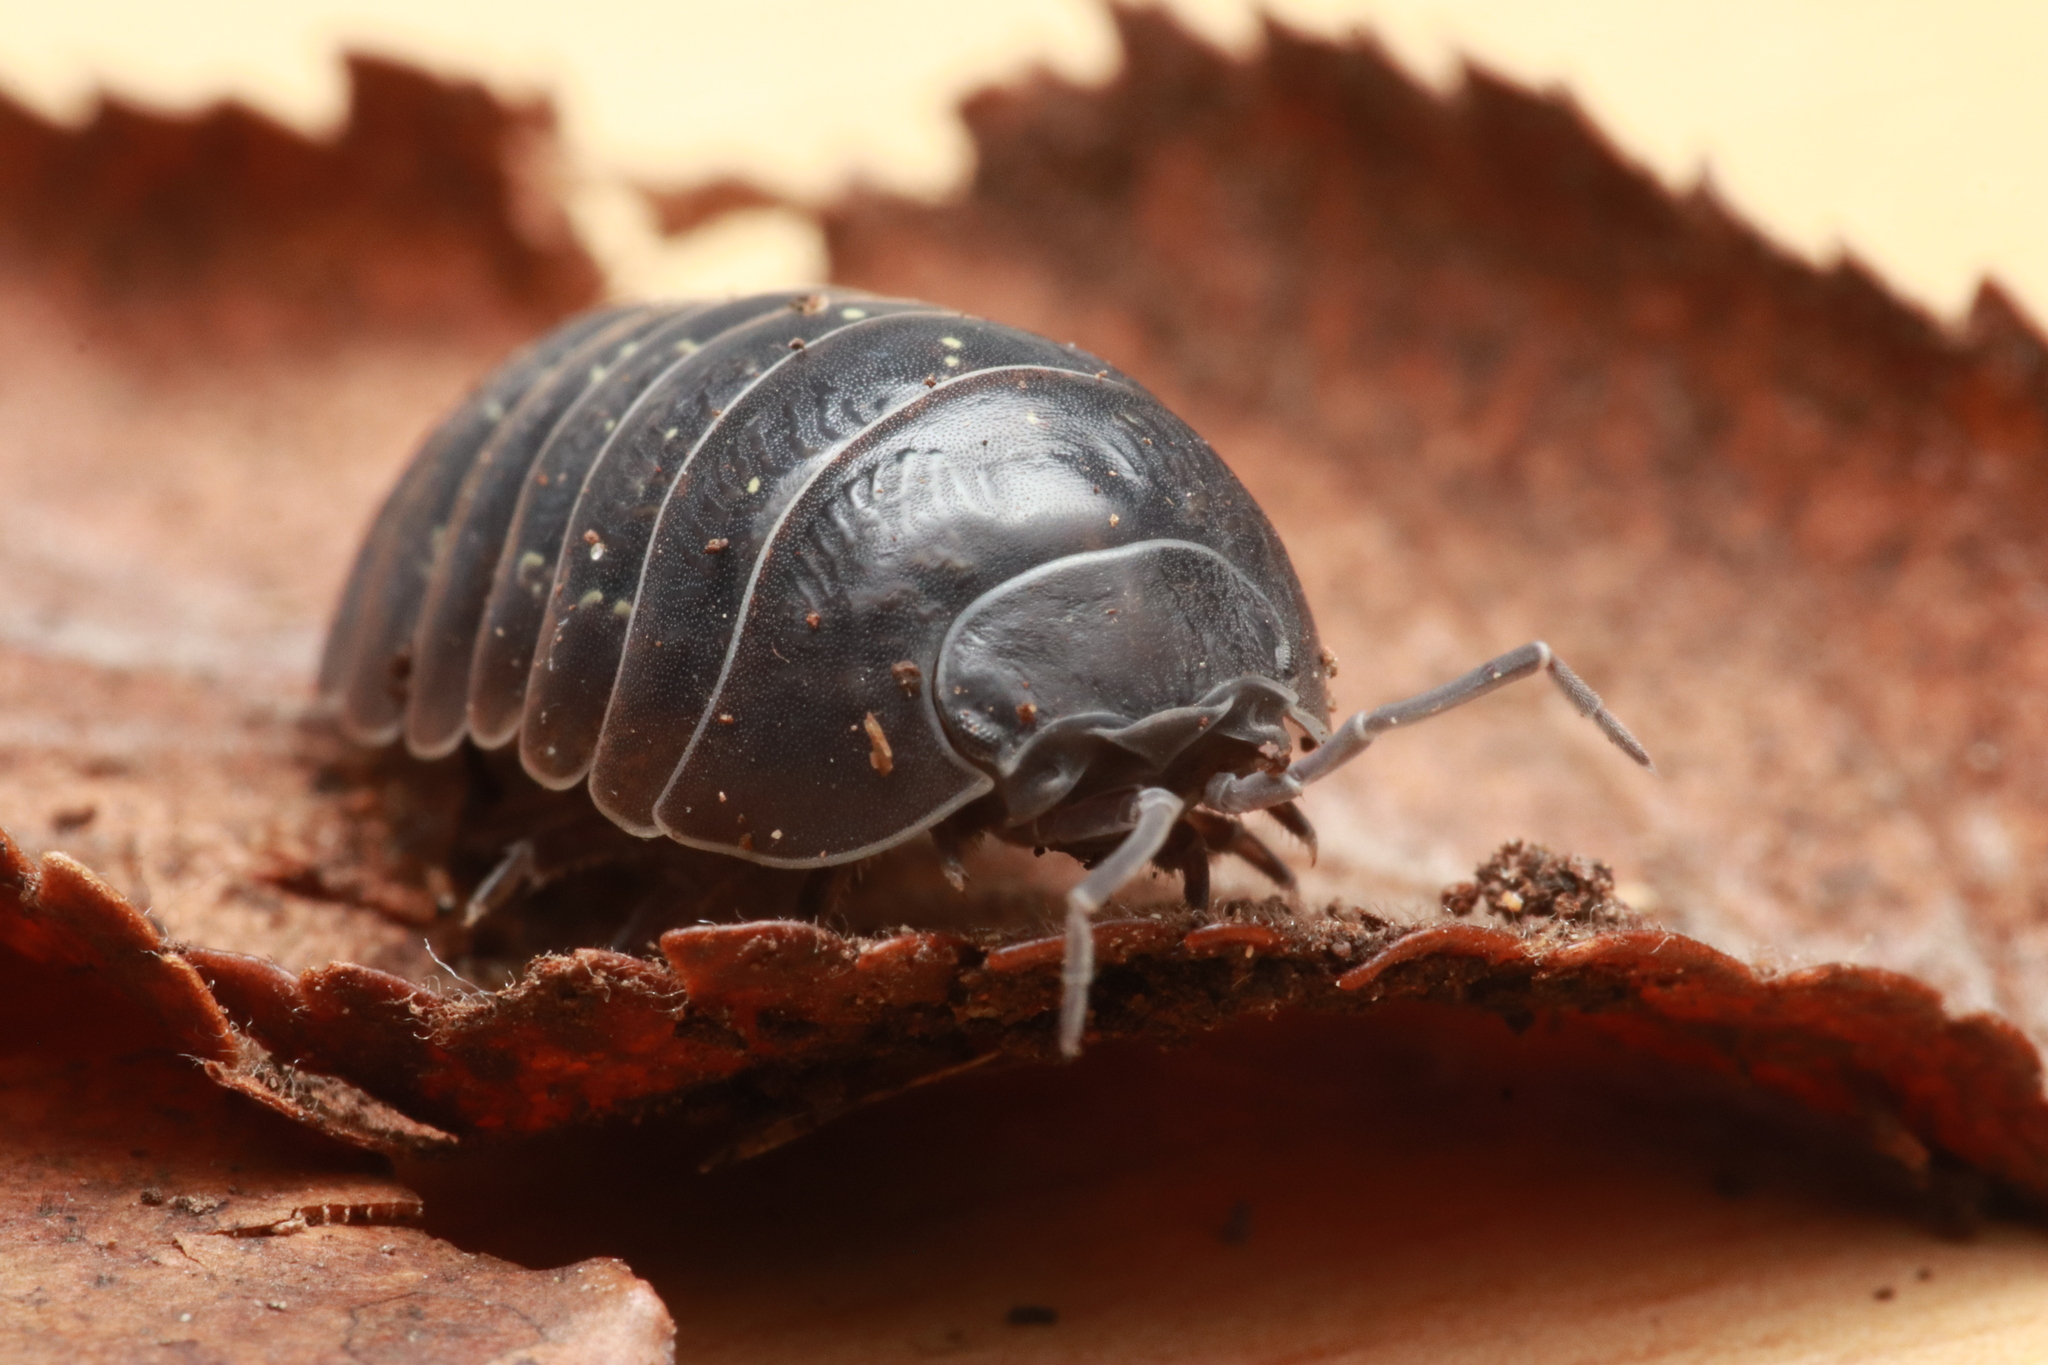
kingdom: Animalia
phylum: Arthropoda
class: Malacostraca
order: Isopoda
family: Armadillidiidae
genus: Armadillidium
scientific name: Armadillidium vulgare
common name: Common pill woodlouse
